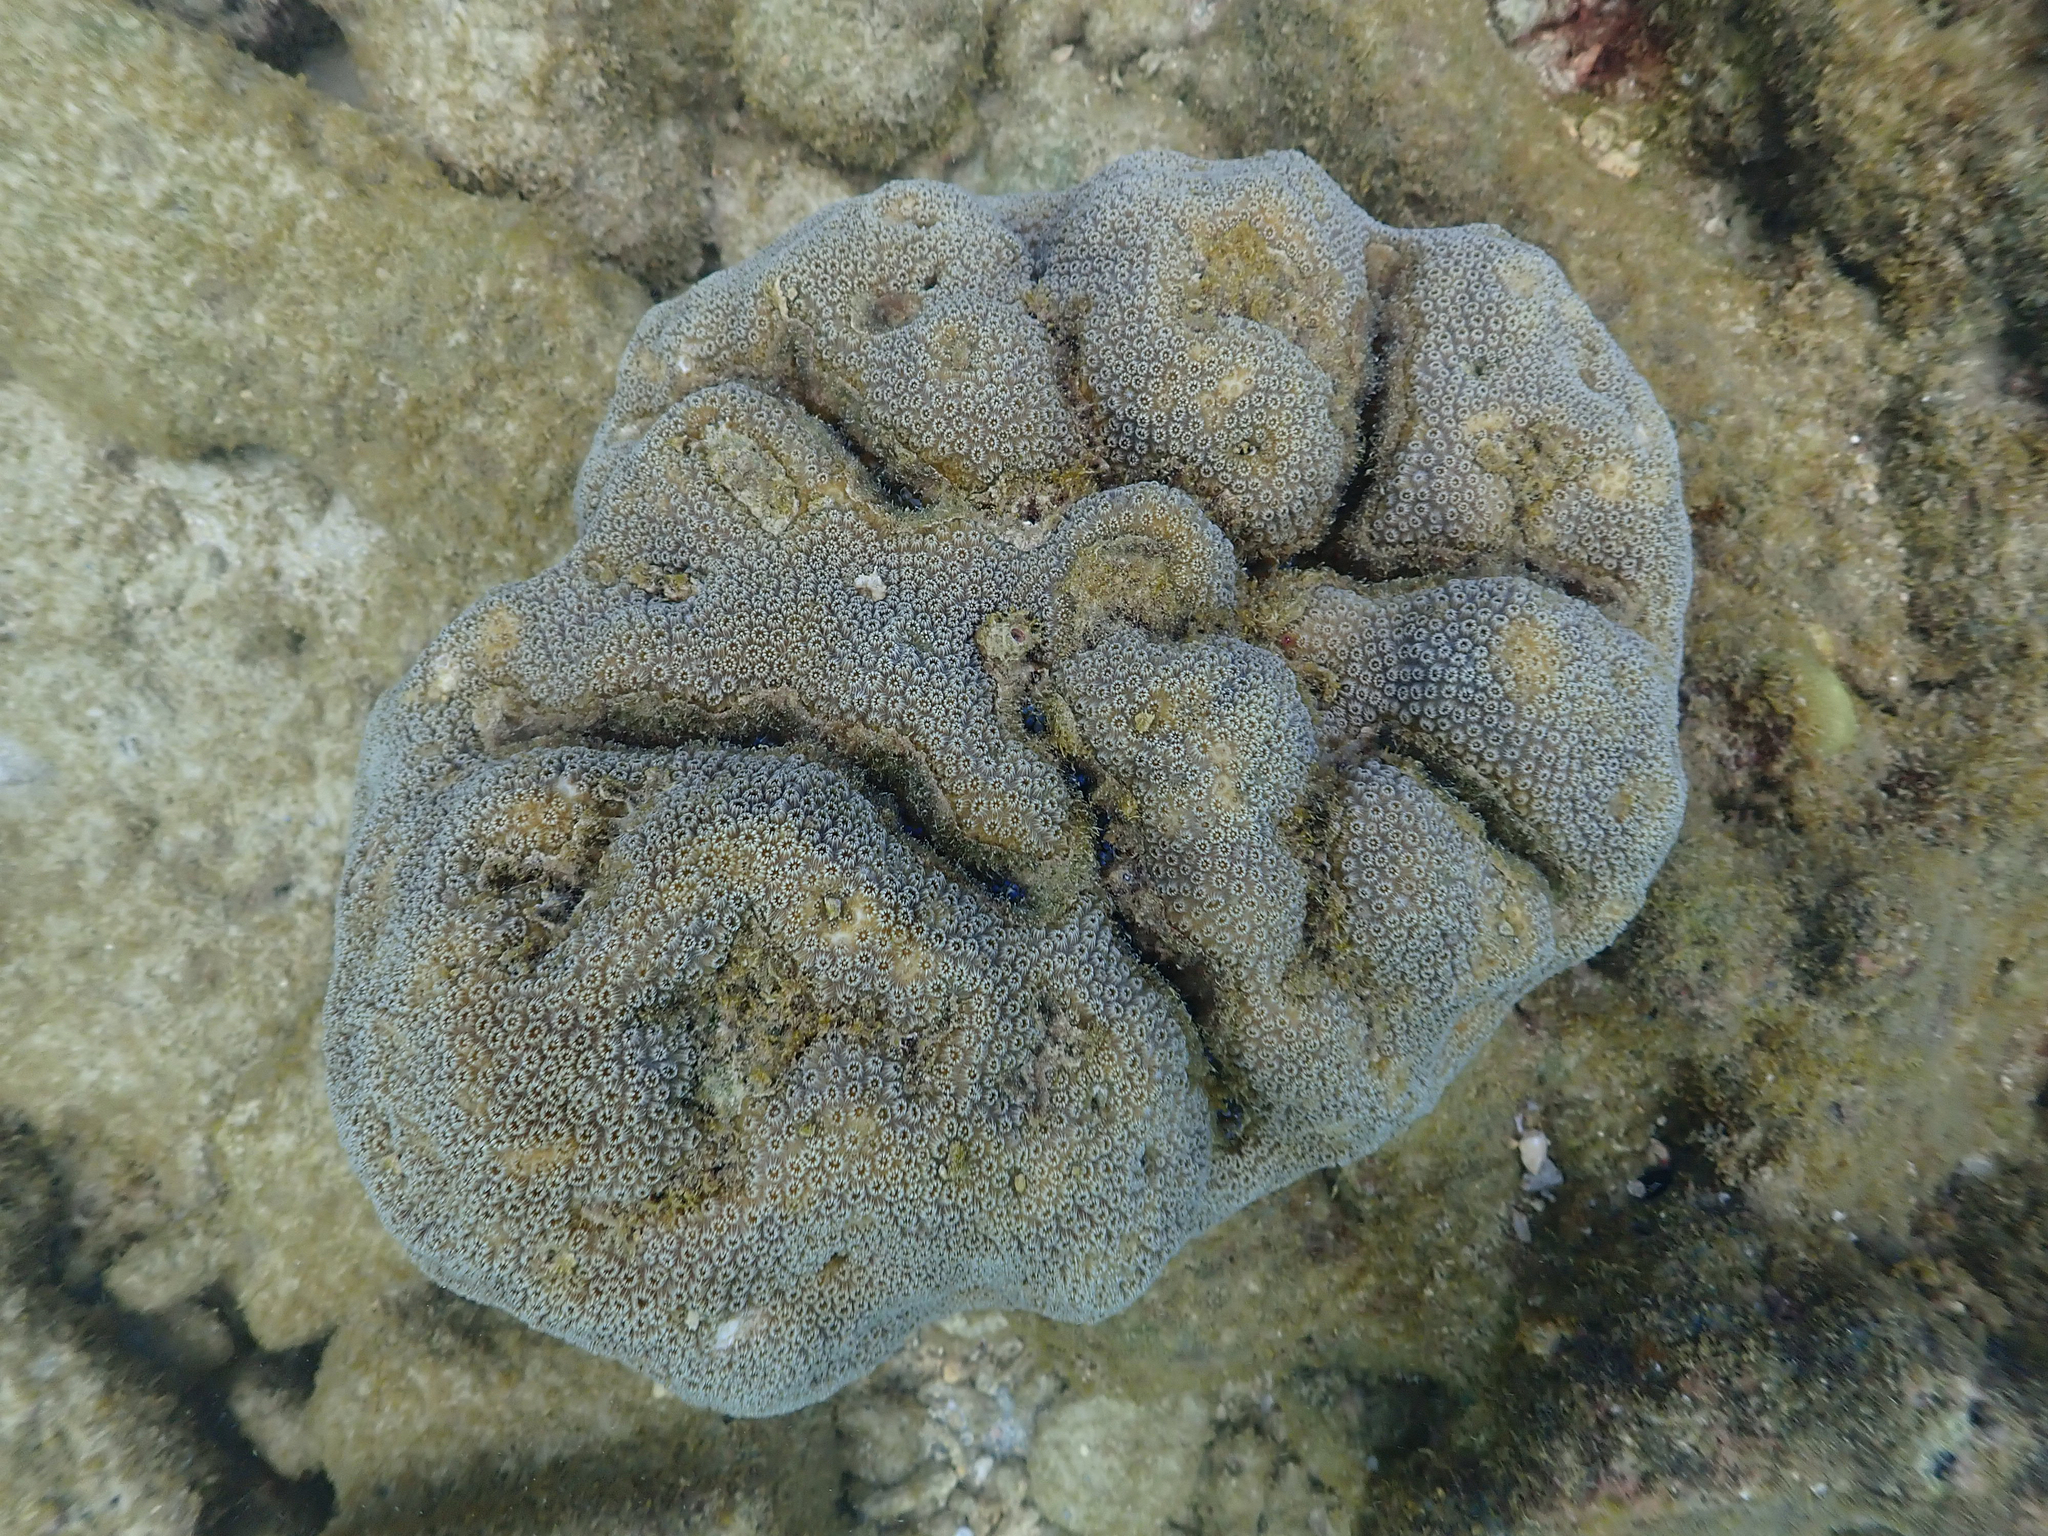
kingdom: Animalia
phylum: Cnidaria
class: Anthozoa
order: Scleractinia
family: Merulinidae
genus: Orbicella
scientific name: Orbicella annularis
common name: Boulder star coral
